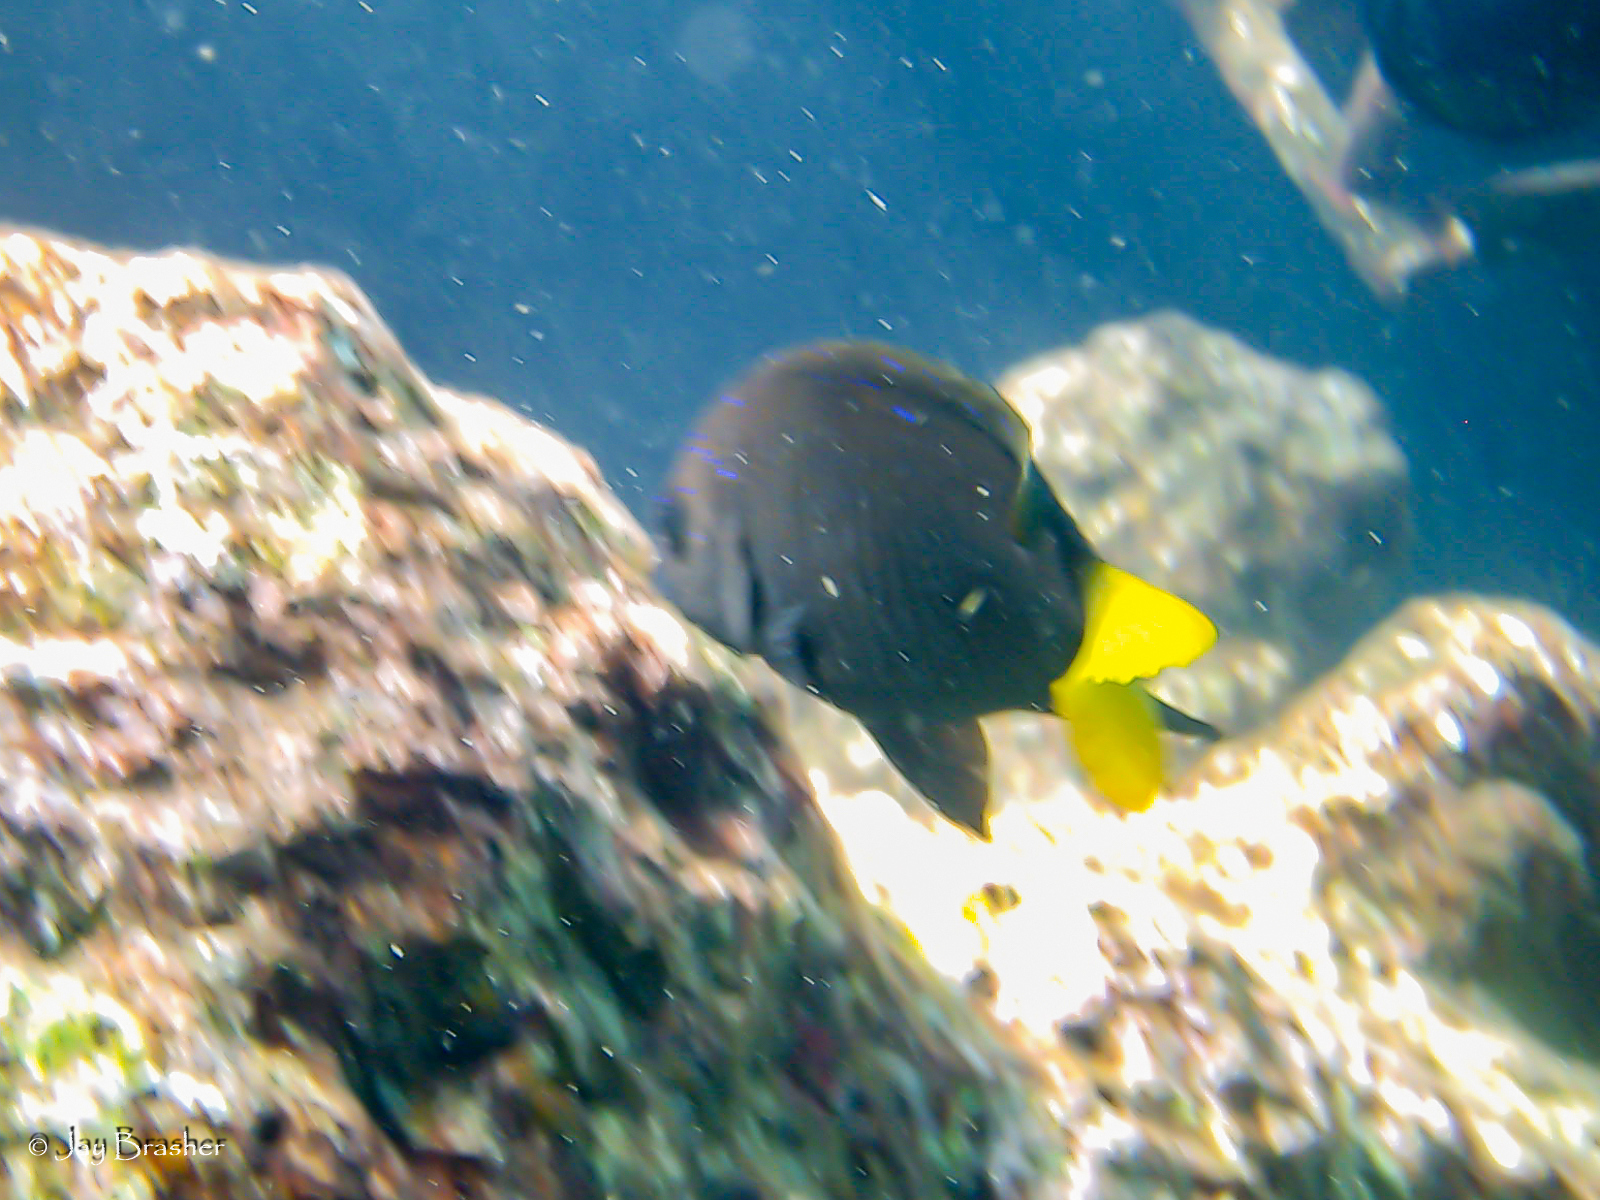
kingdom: Animalia
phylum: Chordata
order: Perciformes
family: Pomacentridae
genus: Microspathodon
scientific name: Microspathodon chrysurus
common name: Yellowtail damselfish
